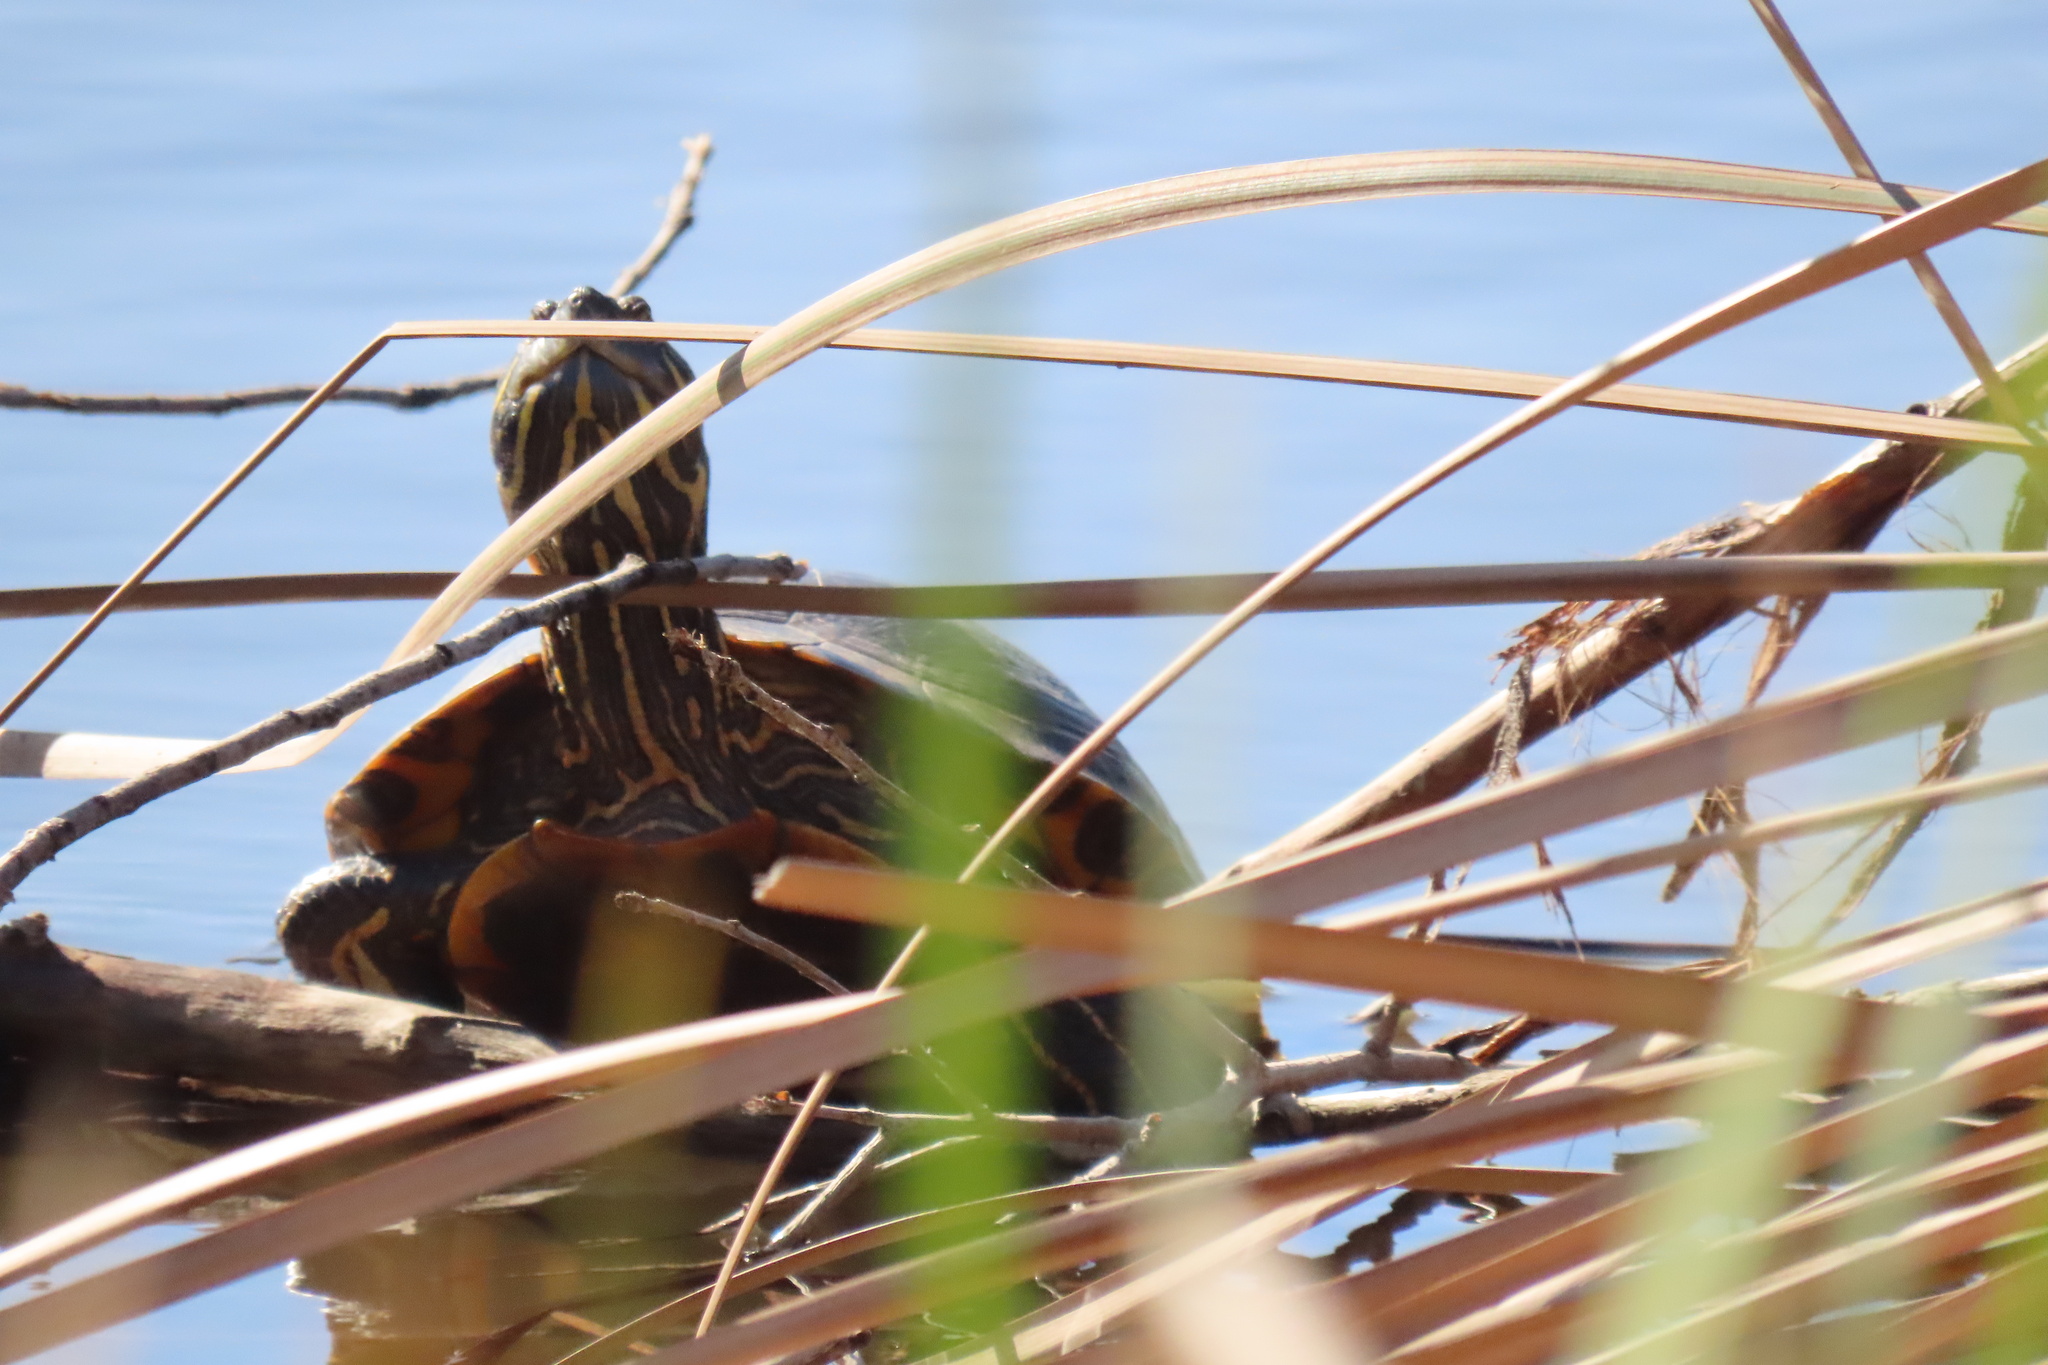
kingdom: Animalia
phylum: Chordata
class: Testudines
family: Emydidae
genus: Trachemys
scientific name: Trachemys scripta
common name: Slider
